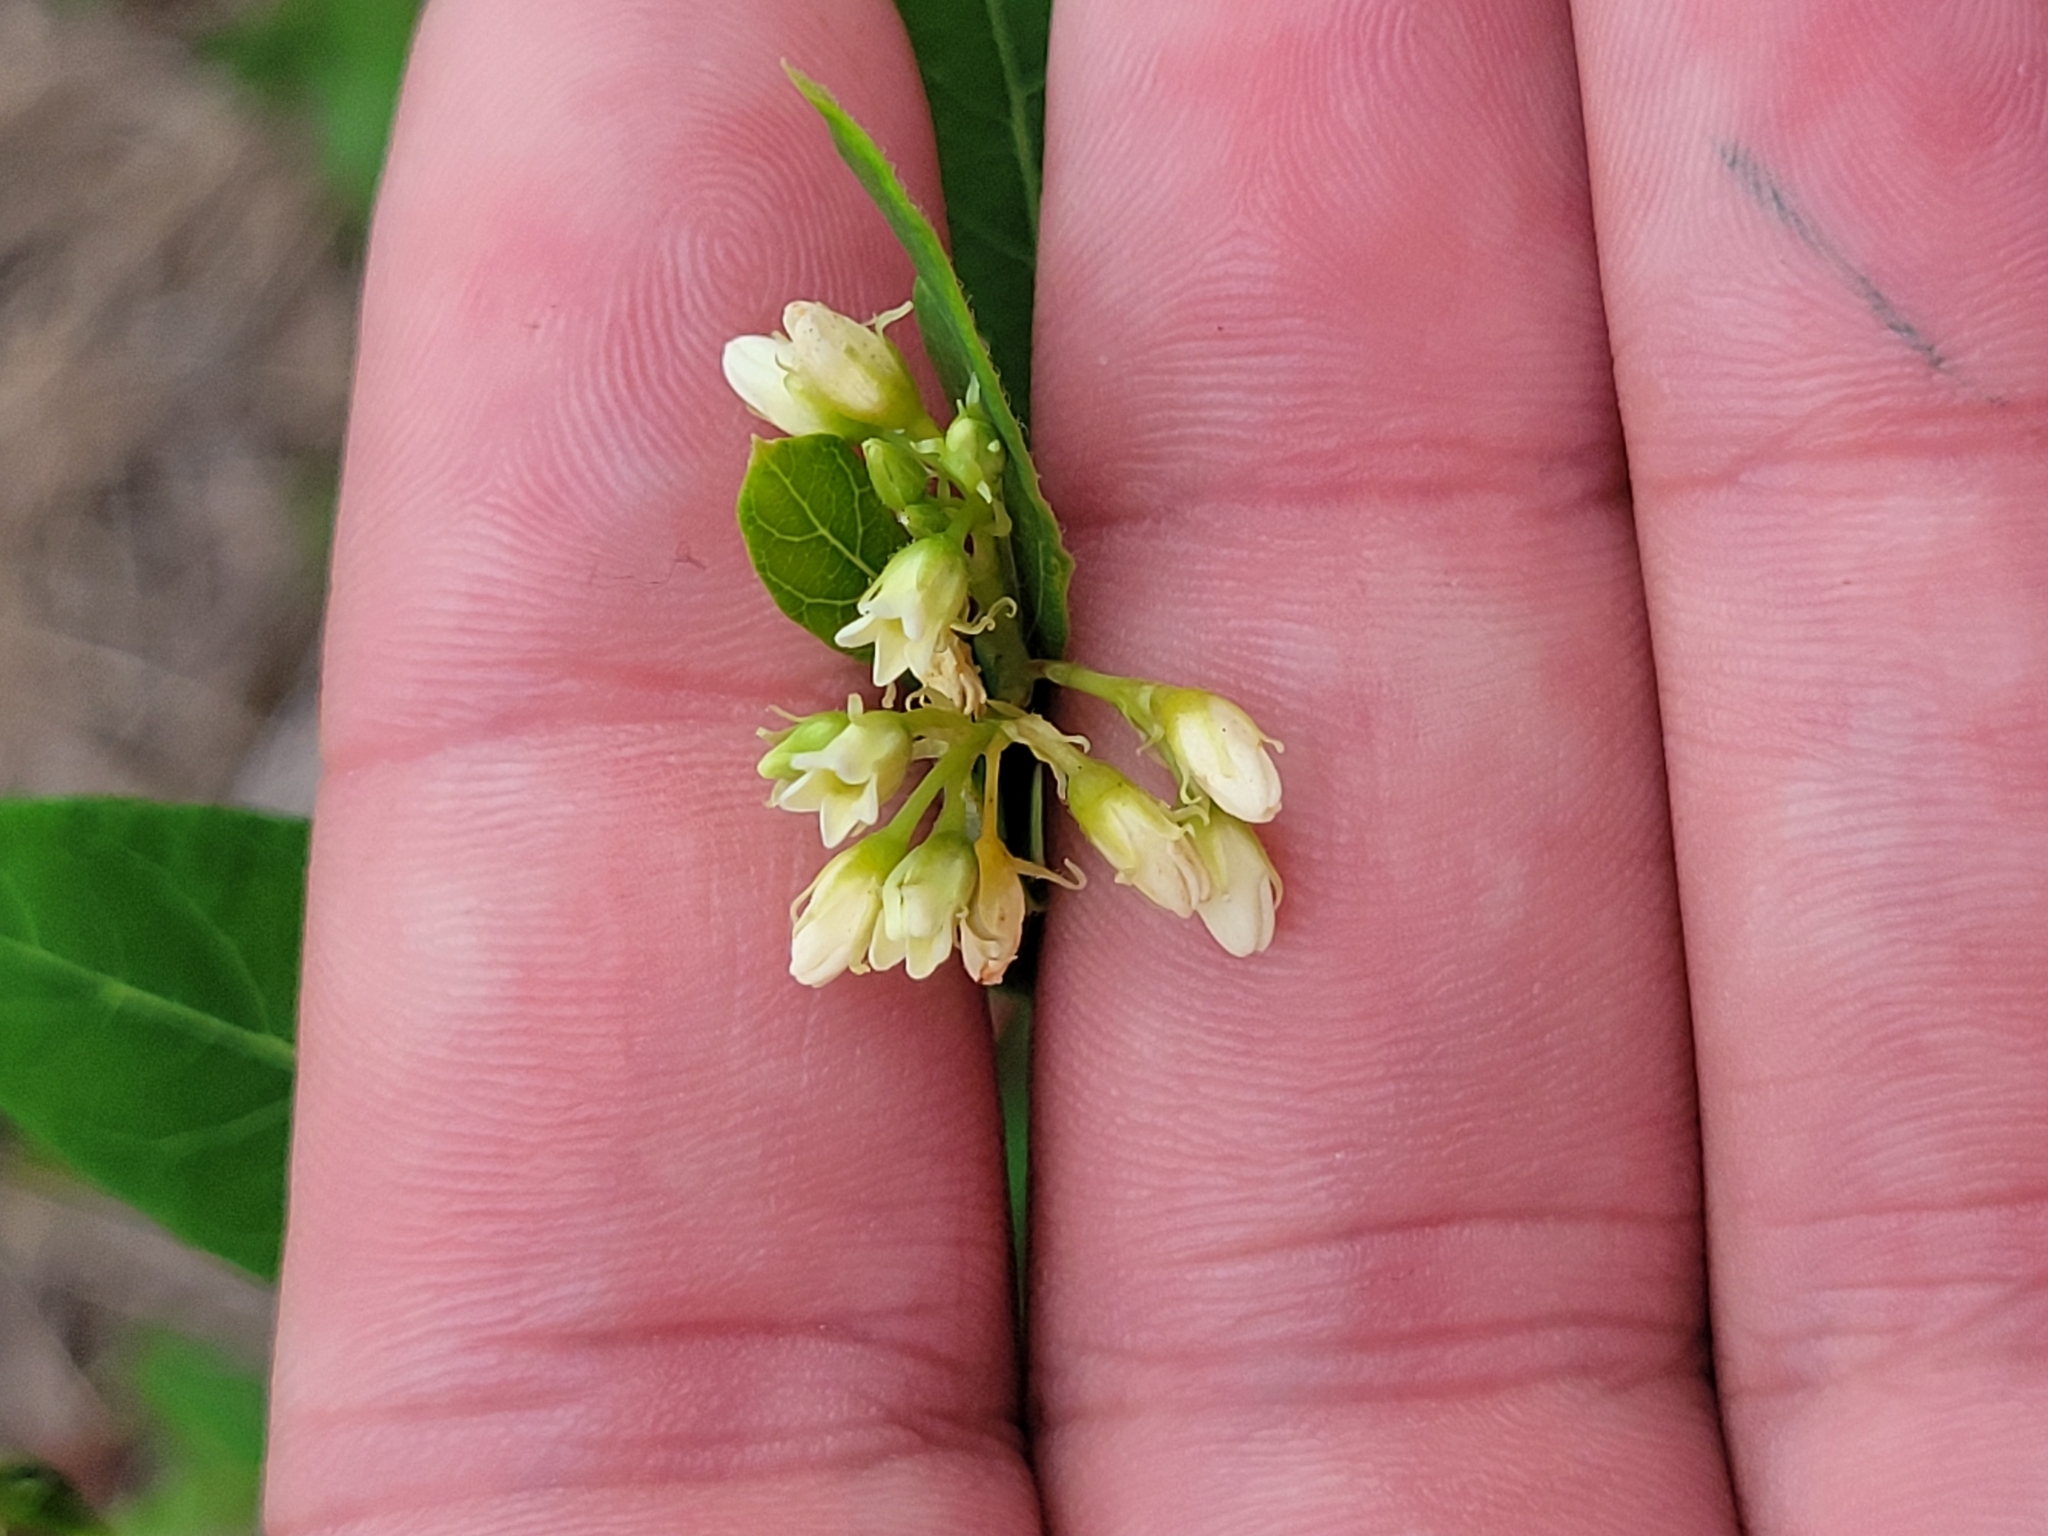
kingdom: Plantae
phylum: Tracheophyta
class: Magnoliopsida
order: Gentianales
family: Apocynaceae
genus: Apocynum
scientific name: Apocynum cannabinum
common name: Hemp dogbane
